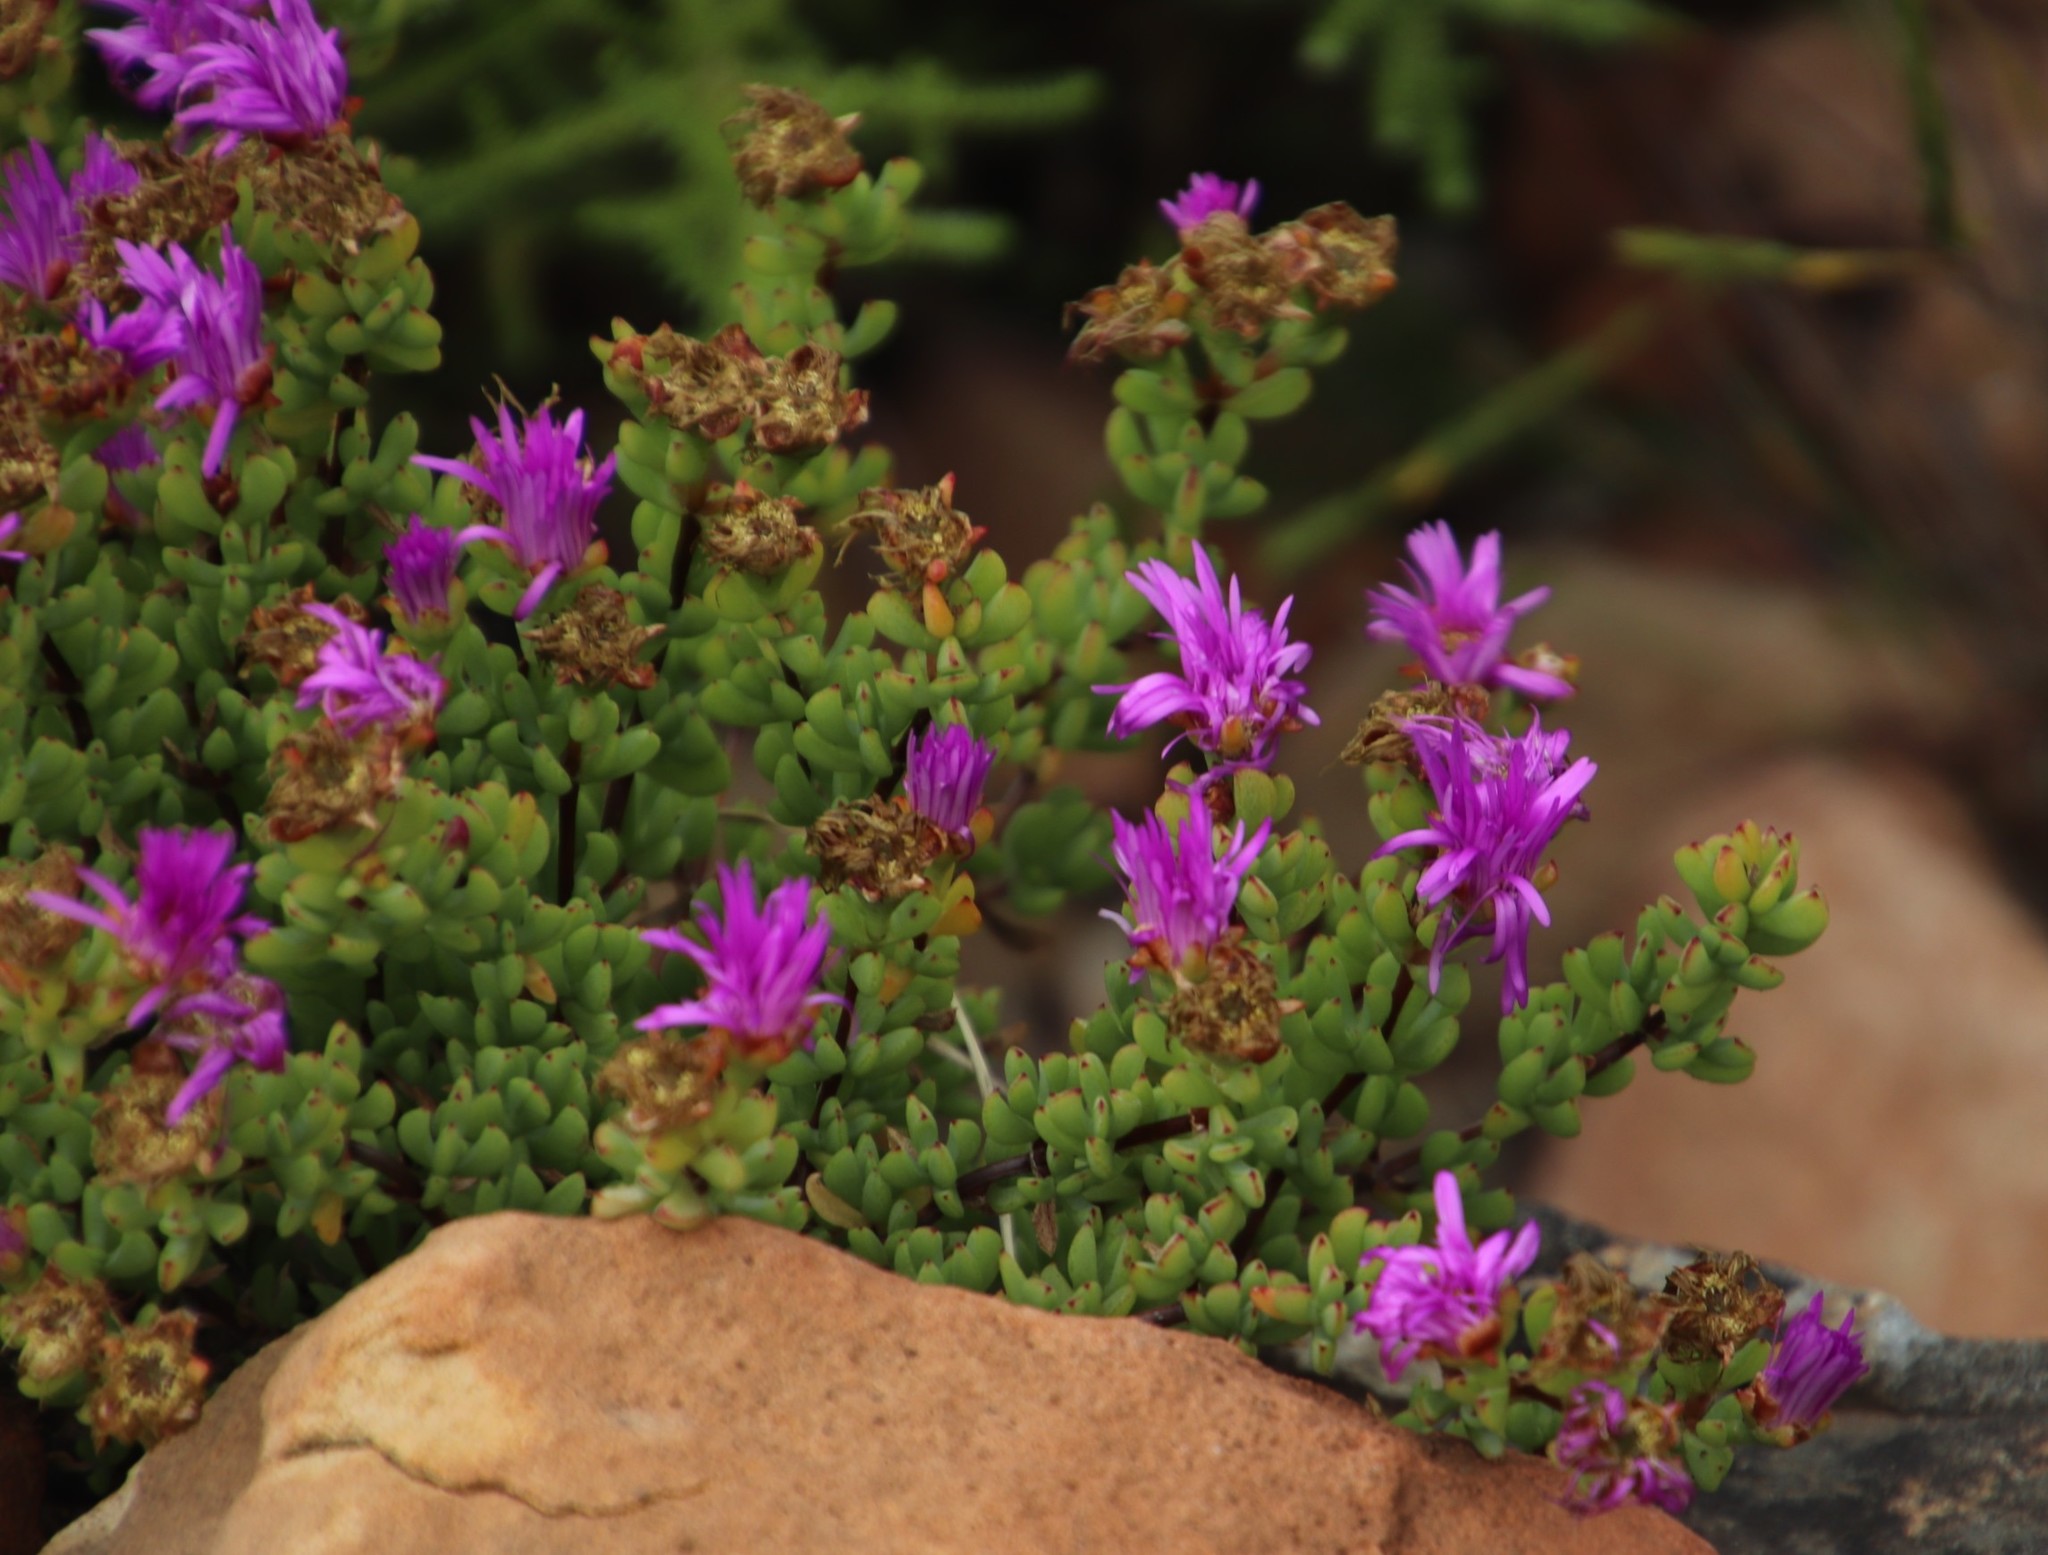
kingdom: Plantae
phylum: Tracheophyta
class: Magnoliopsida
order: Caryophyllales
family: Aizoaceae
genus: Oscularia
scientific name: Oscularia falciformis
